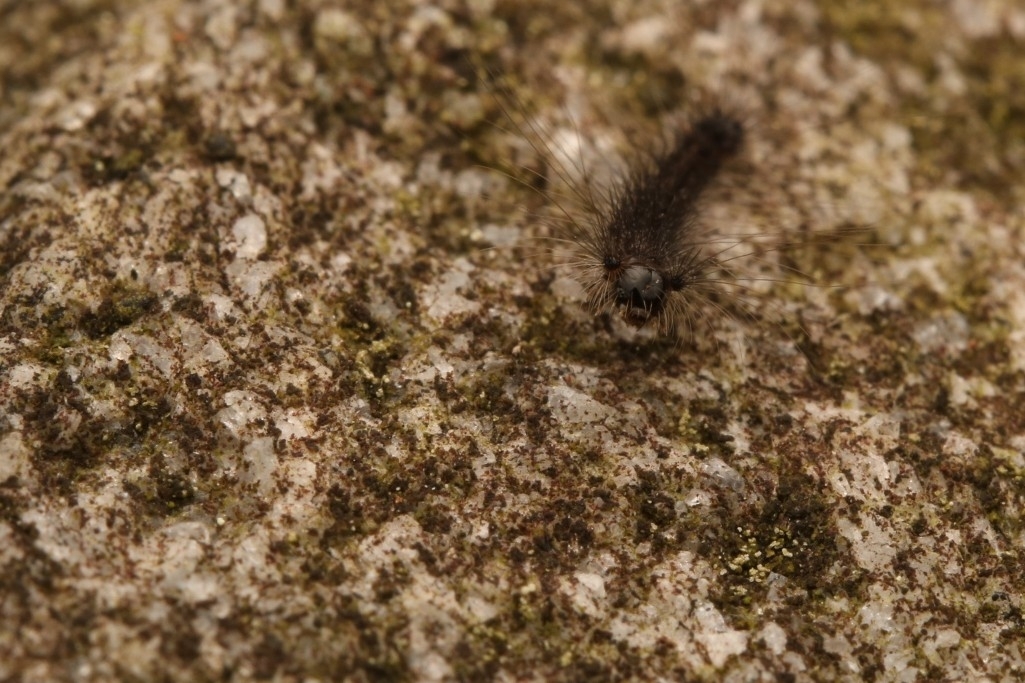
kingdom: Animalia
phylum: Arthropoda
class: Insecta
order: Lepidoptera
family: Erebidae
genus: Lymantria
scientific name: Lymantria dispar
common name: Gypsy moth
